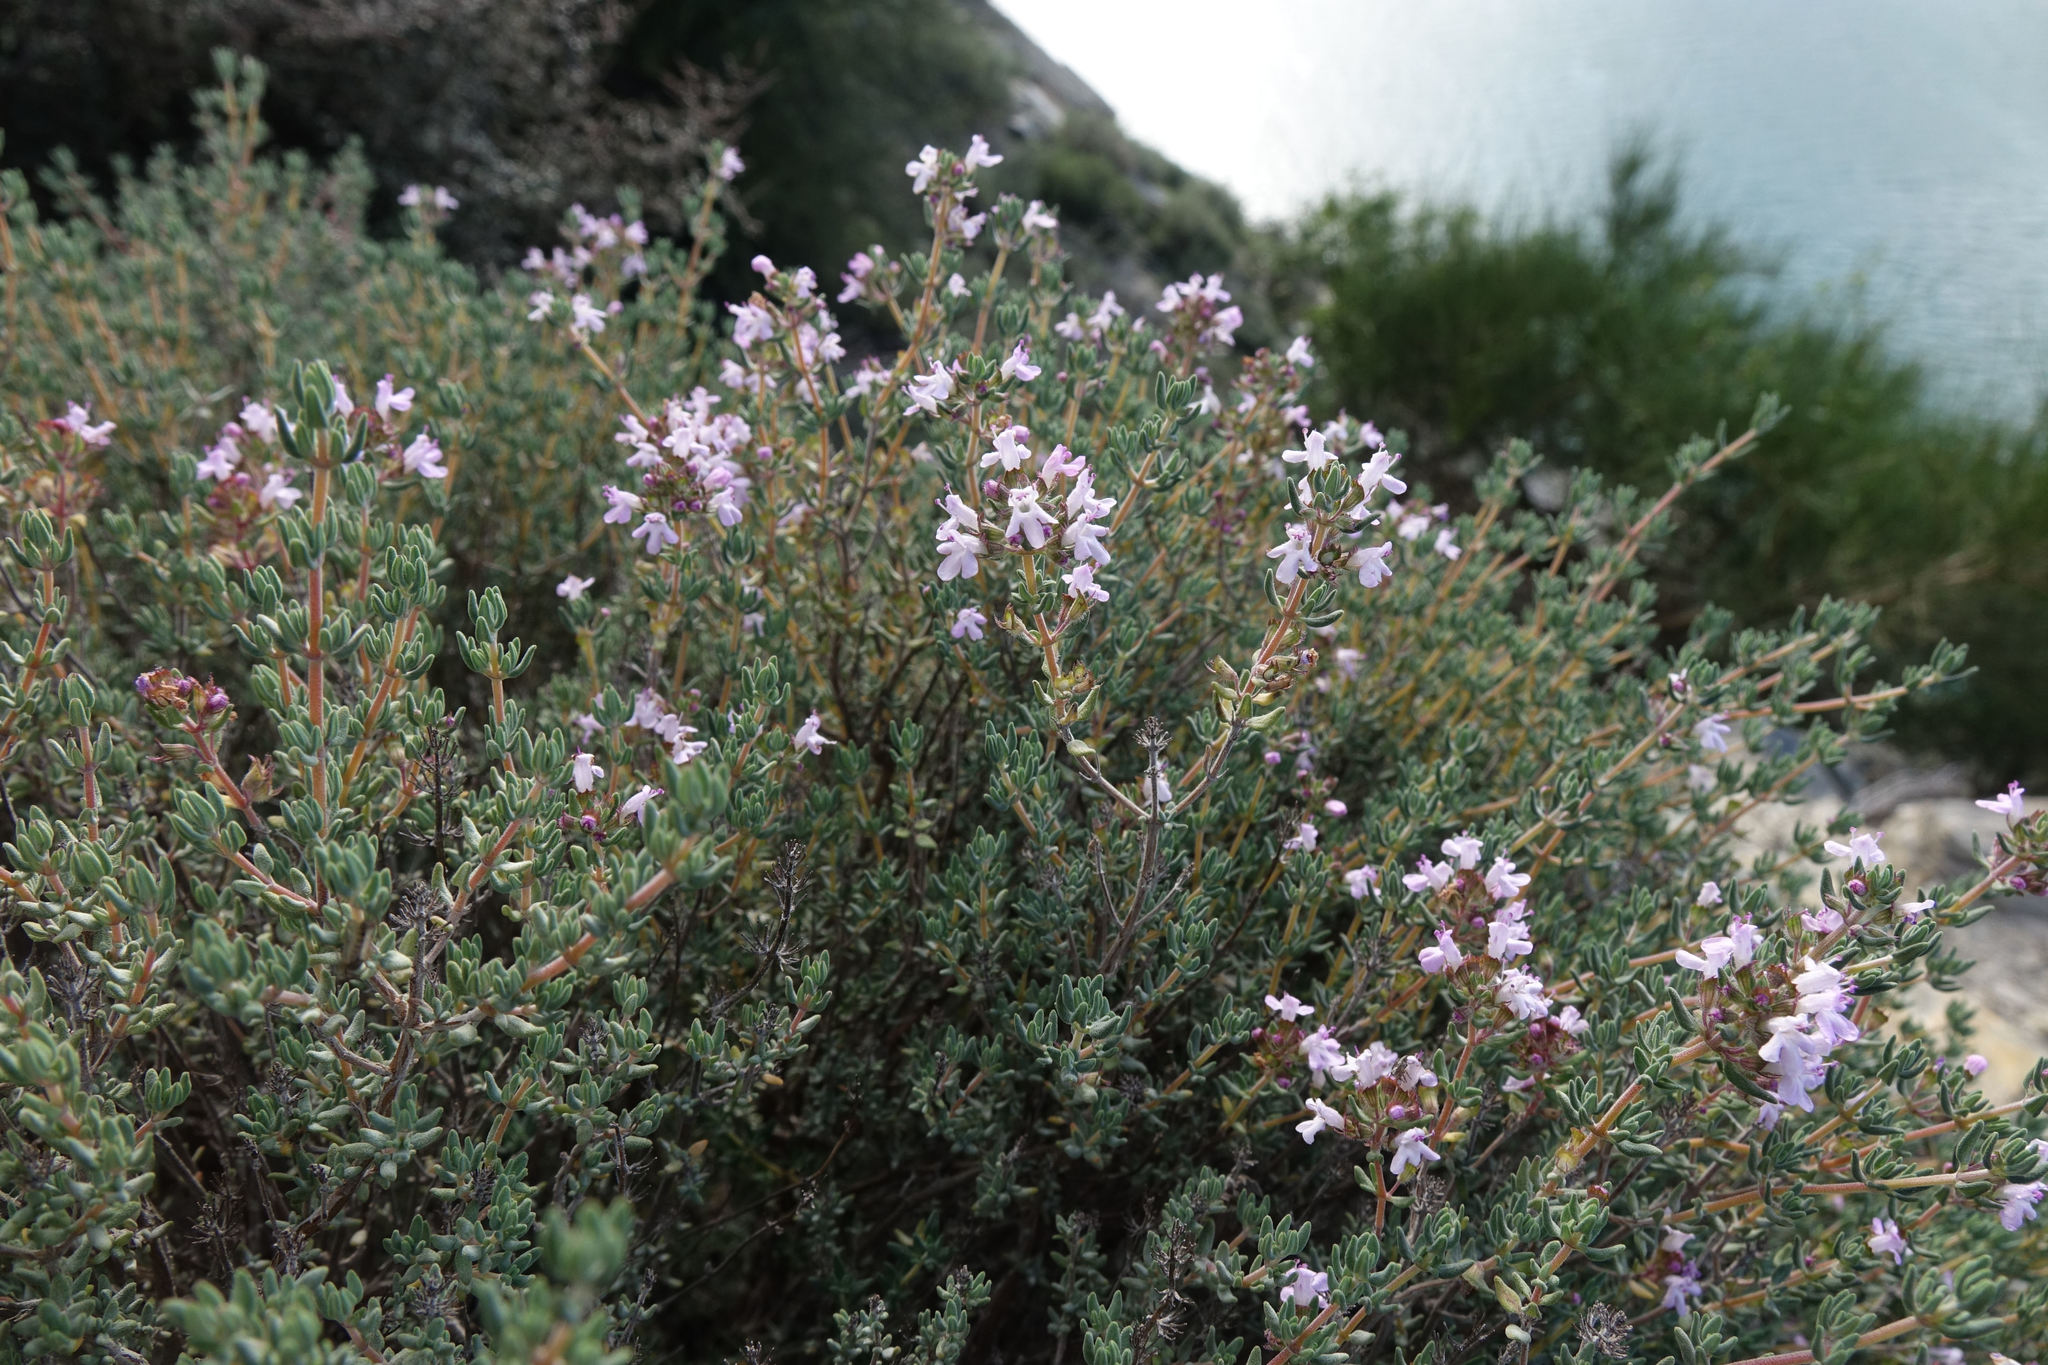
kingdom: Plantae
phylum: Tracheophyta
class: Magnoliopsida
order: Lamiales
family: Lamiaceae
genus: Thymus
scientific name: Thymus vulgaris
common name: Garden thyme
